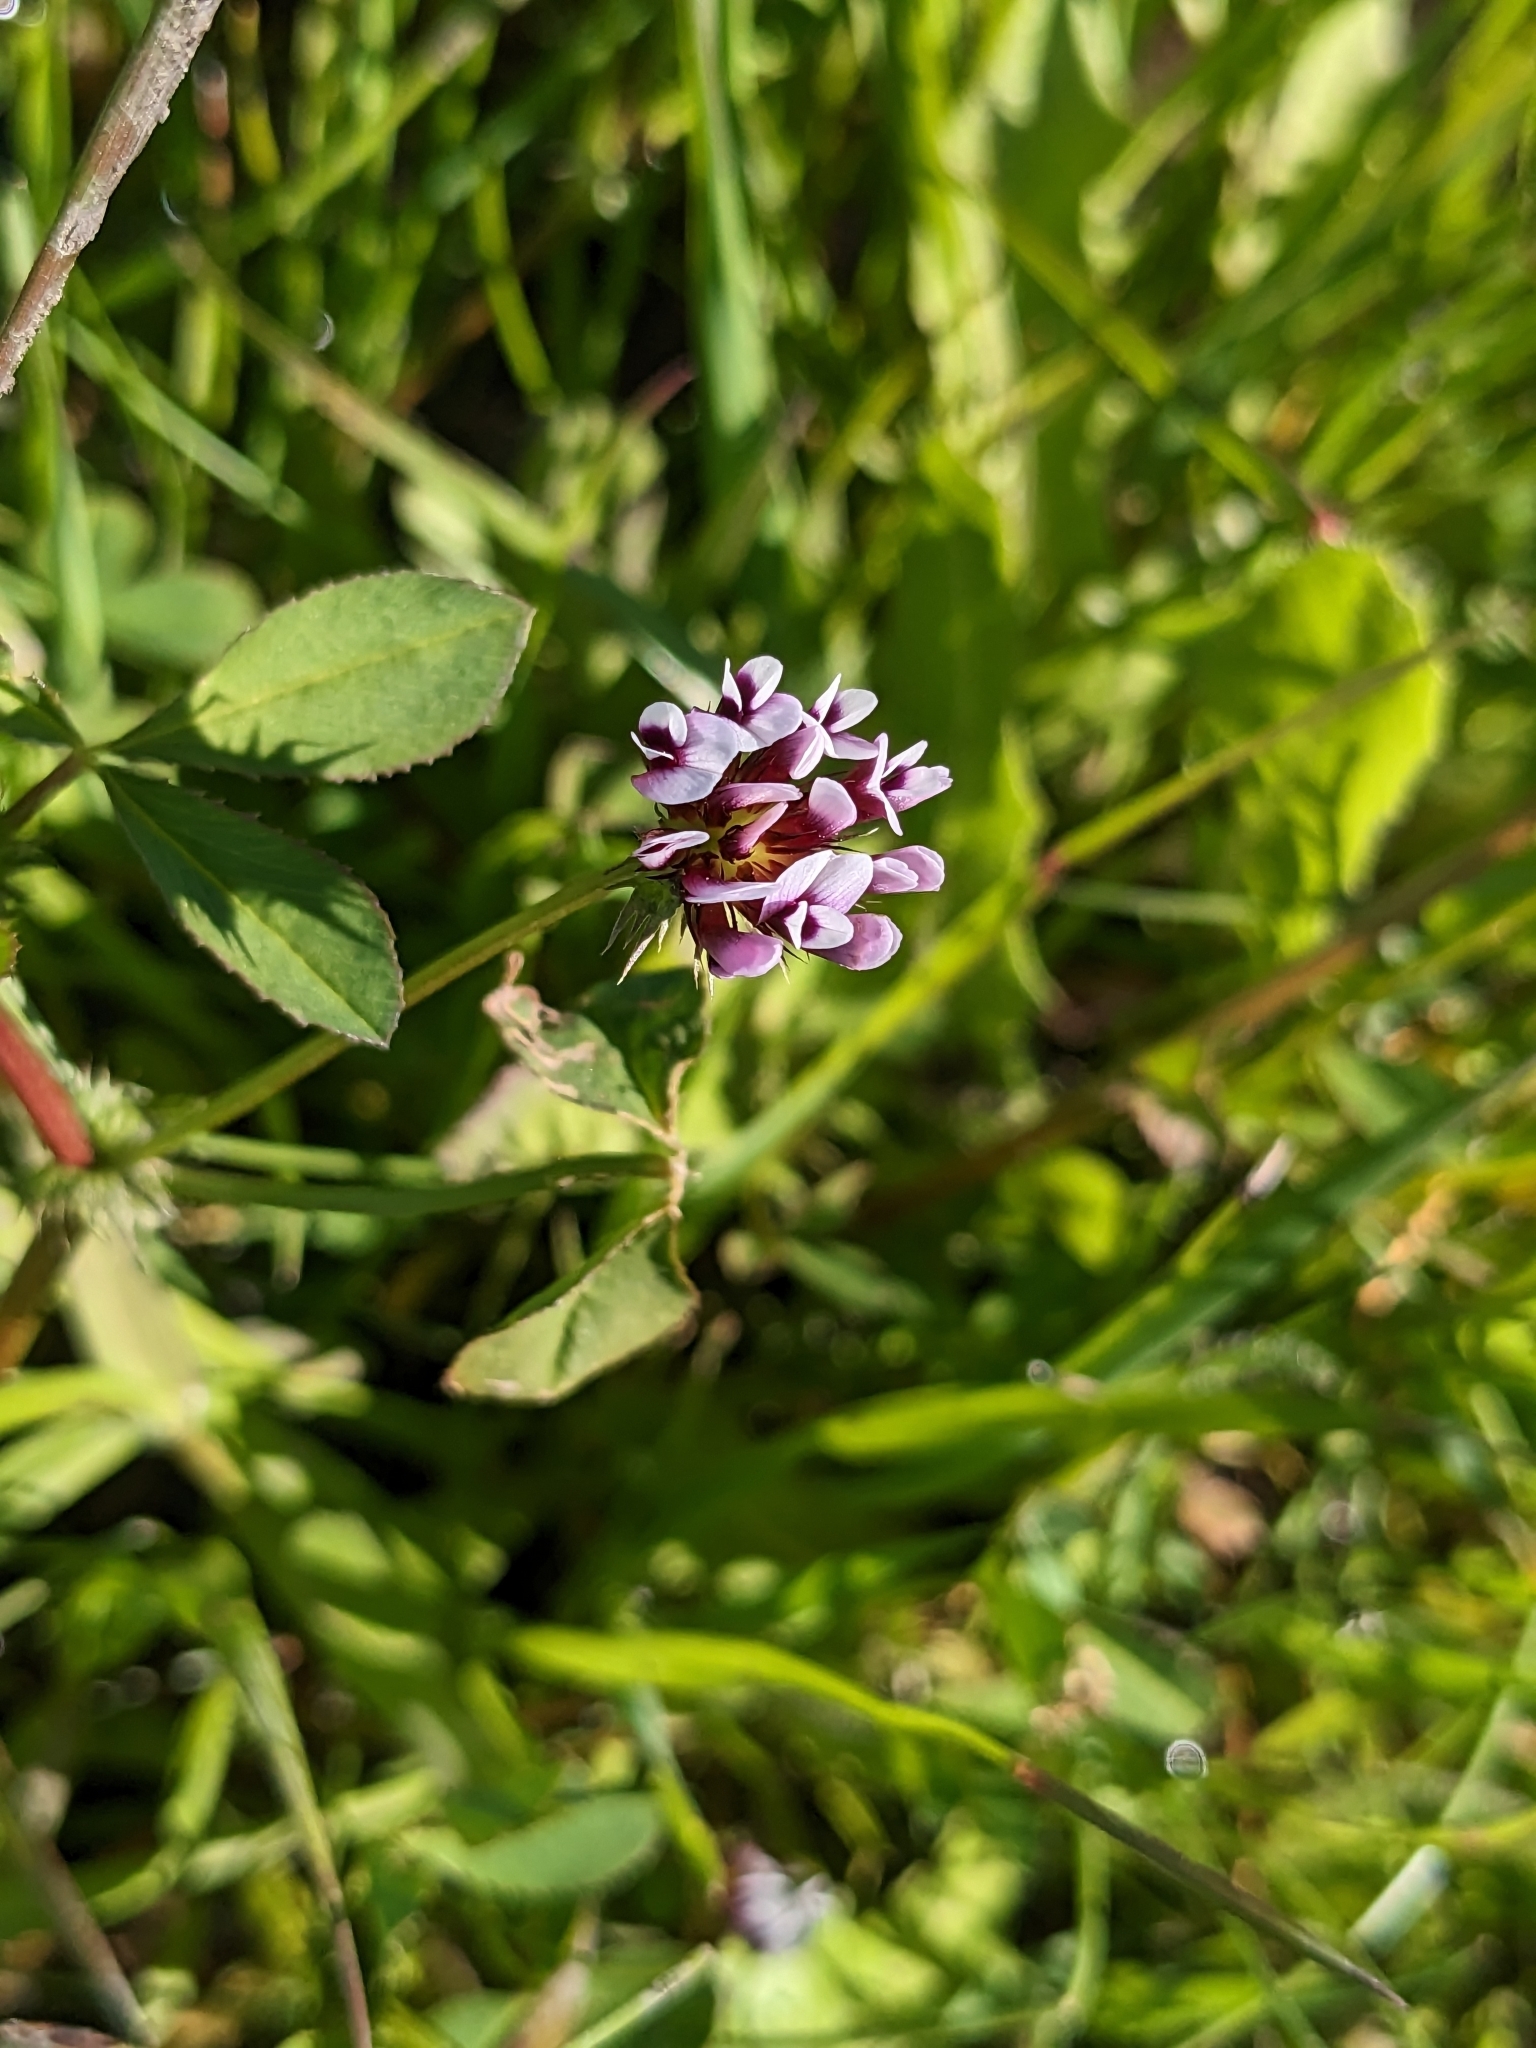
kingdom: Plantae
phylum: Tracheophyta
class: Magnoliopsida
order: Fabales
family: Fabaceae
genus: Trifolium
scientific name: Trifolium variegatum
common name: Whitetip clover
